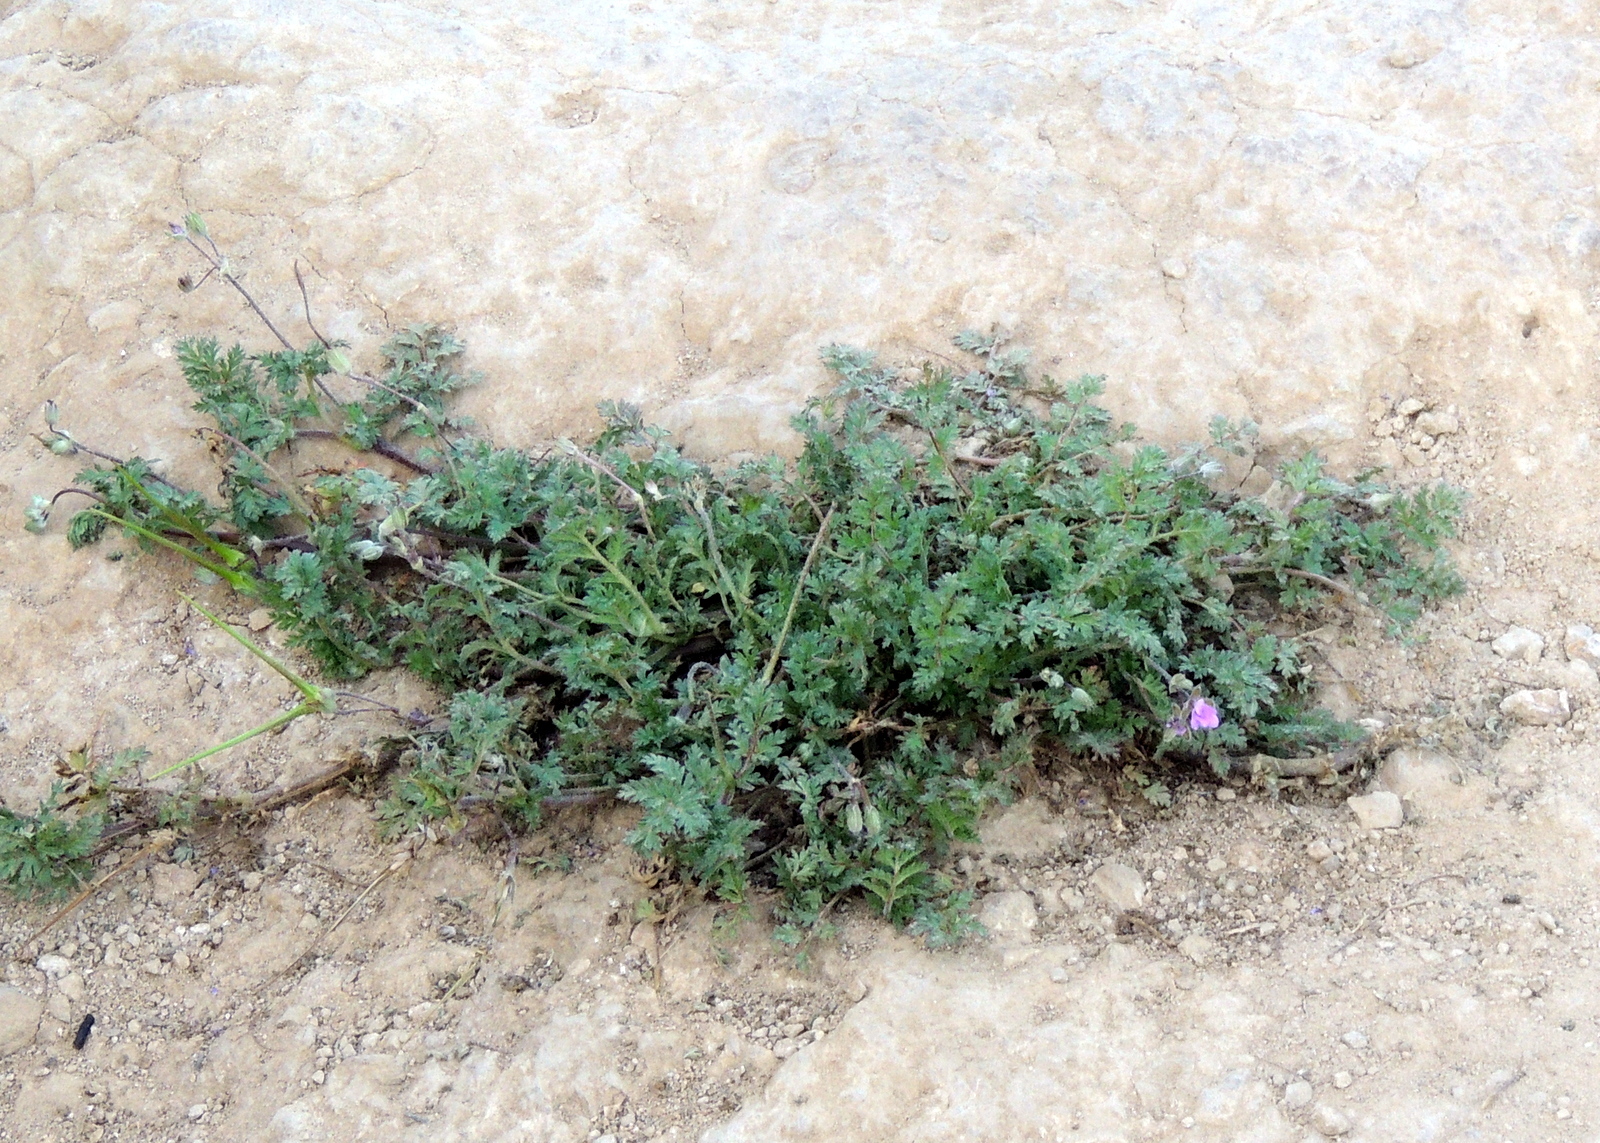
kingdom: Plantae
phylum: Tracheophyta
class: Magnoliopsida
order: Geraniales
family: Geraniaceae
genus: Erodium
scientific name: Erodium cicutarium
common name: Common stork's-bill
